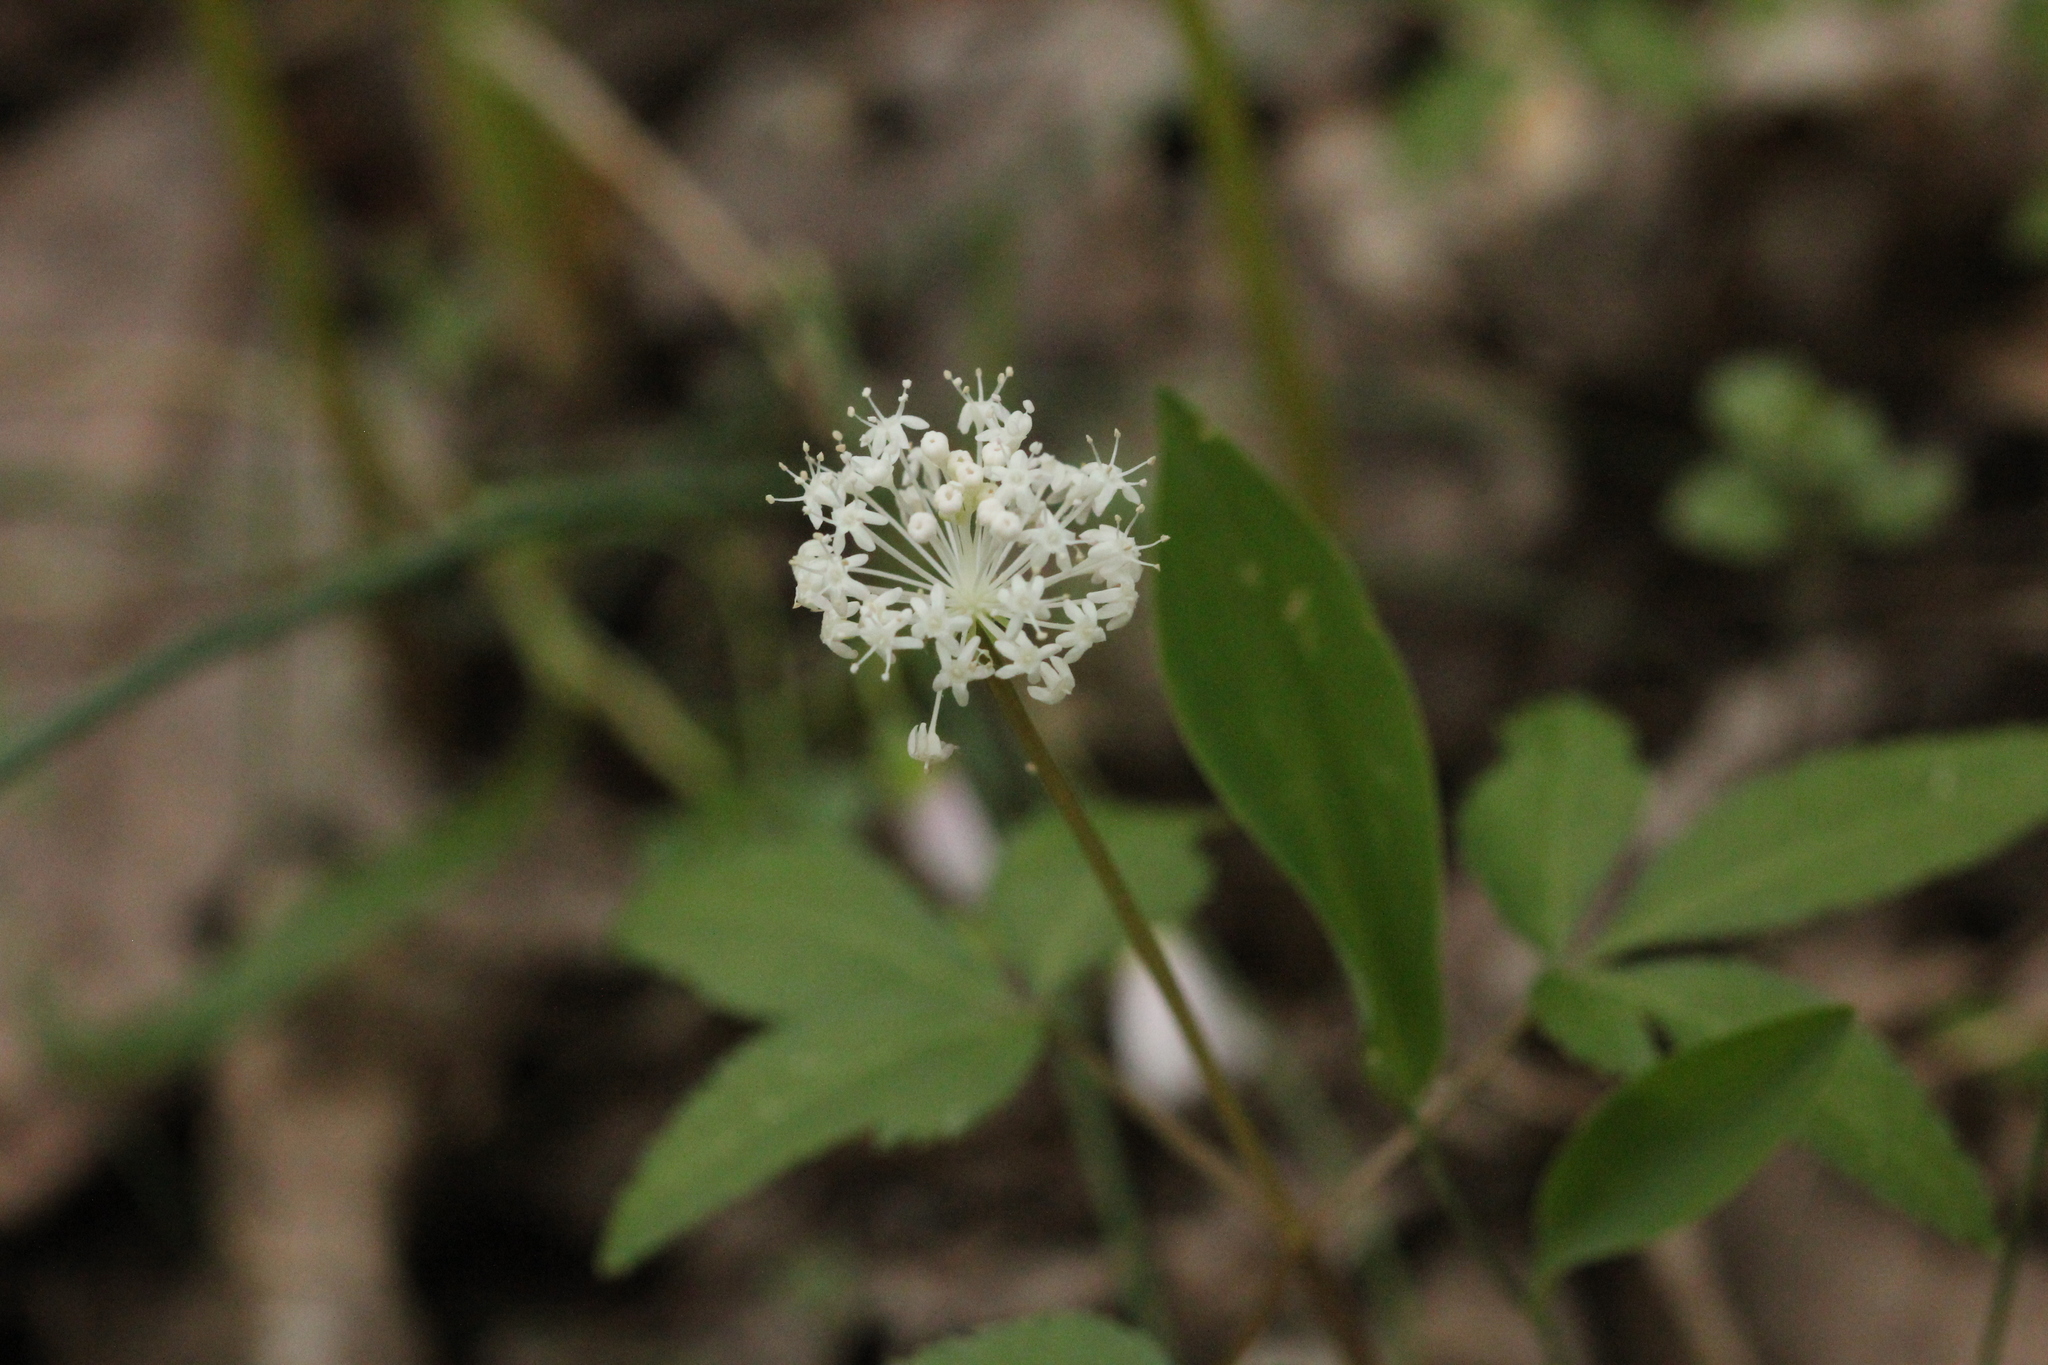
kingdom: Plantae
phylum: Tracheophyta
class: Magnoliopsida
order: Apiales
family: Araliaceae
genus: Panax
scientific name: Panax trifolius
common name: Dwarf ginseng
